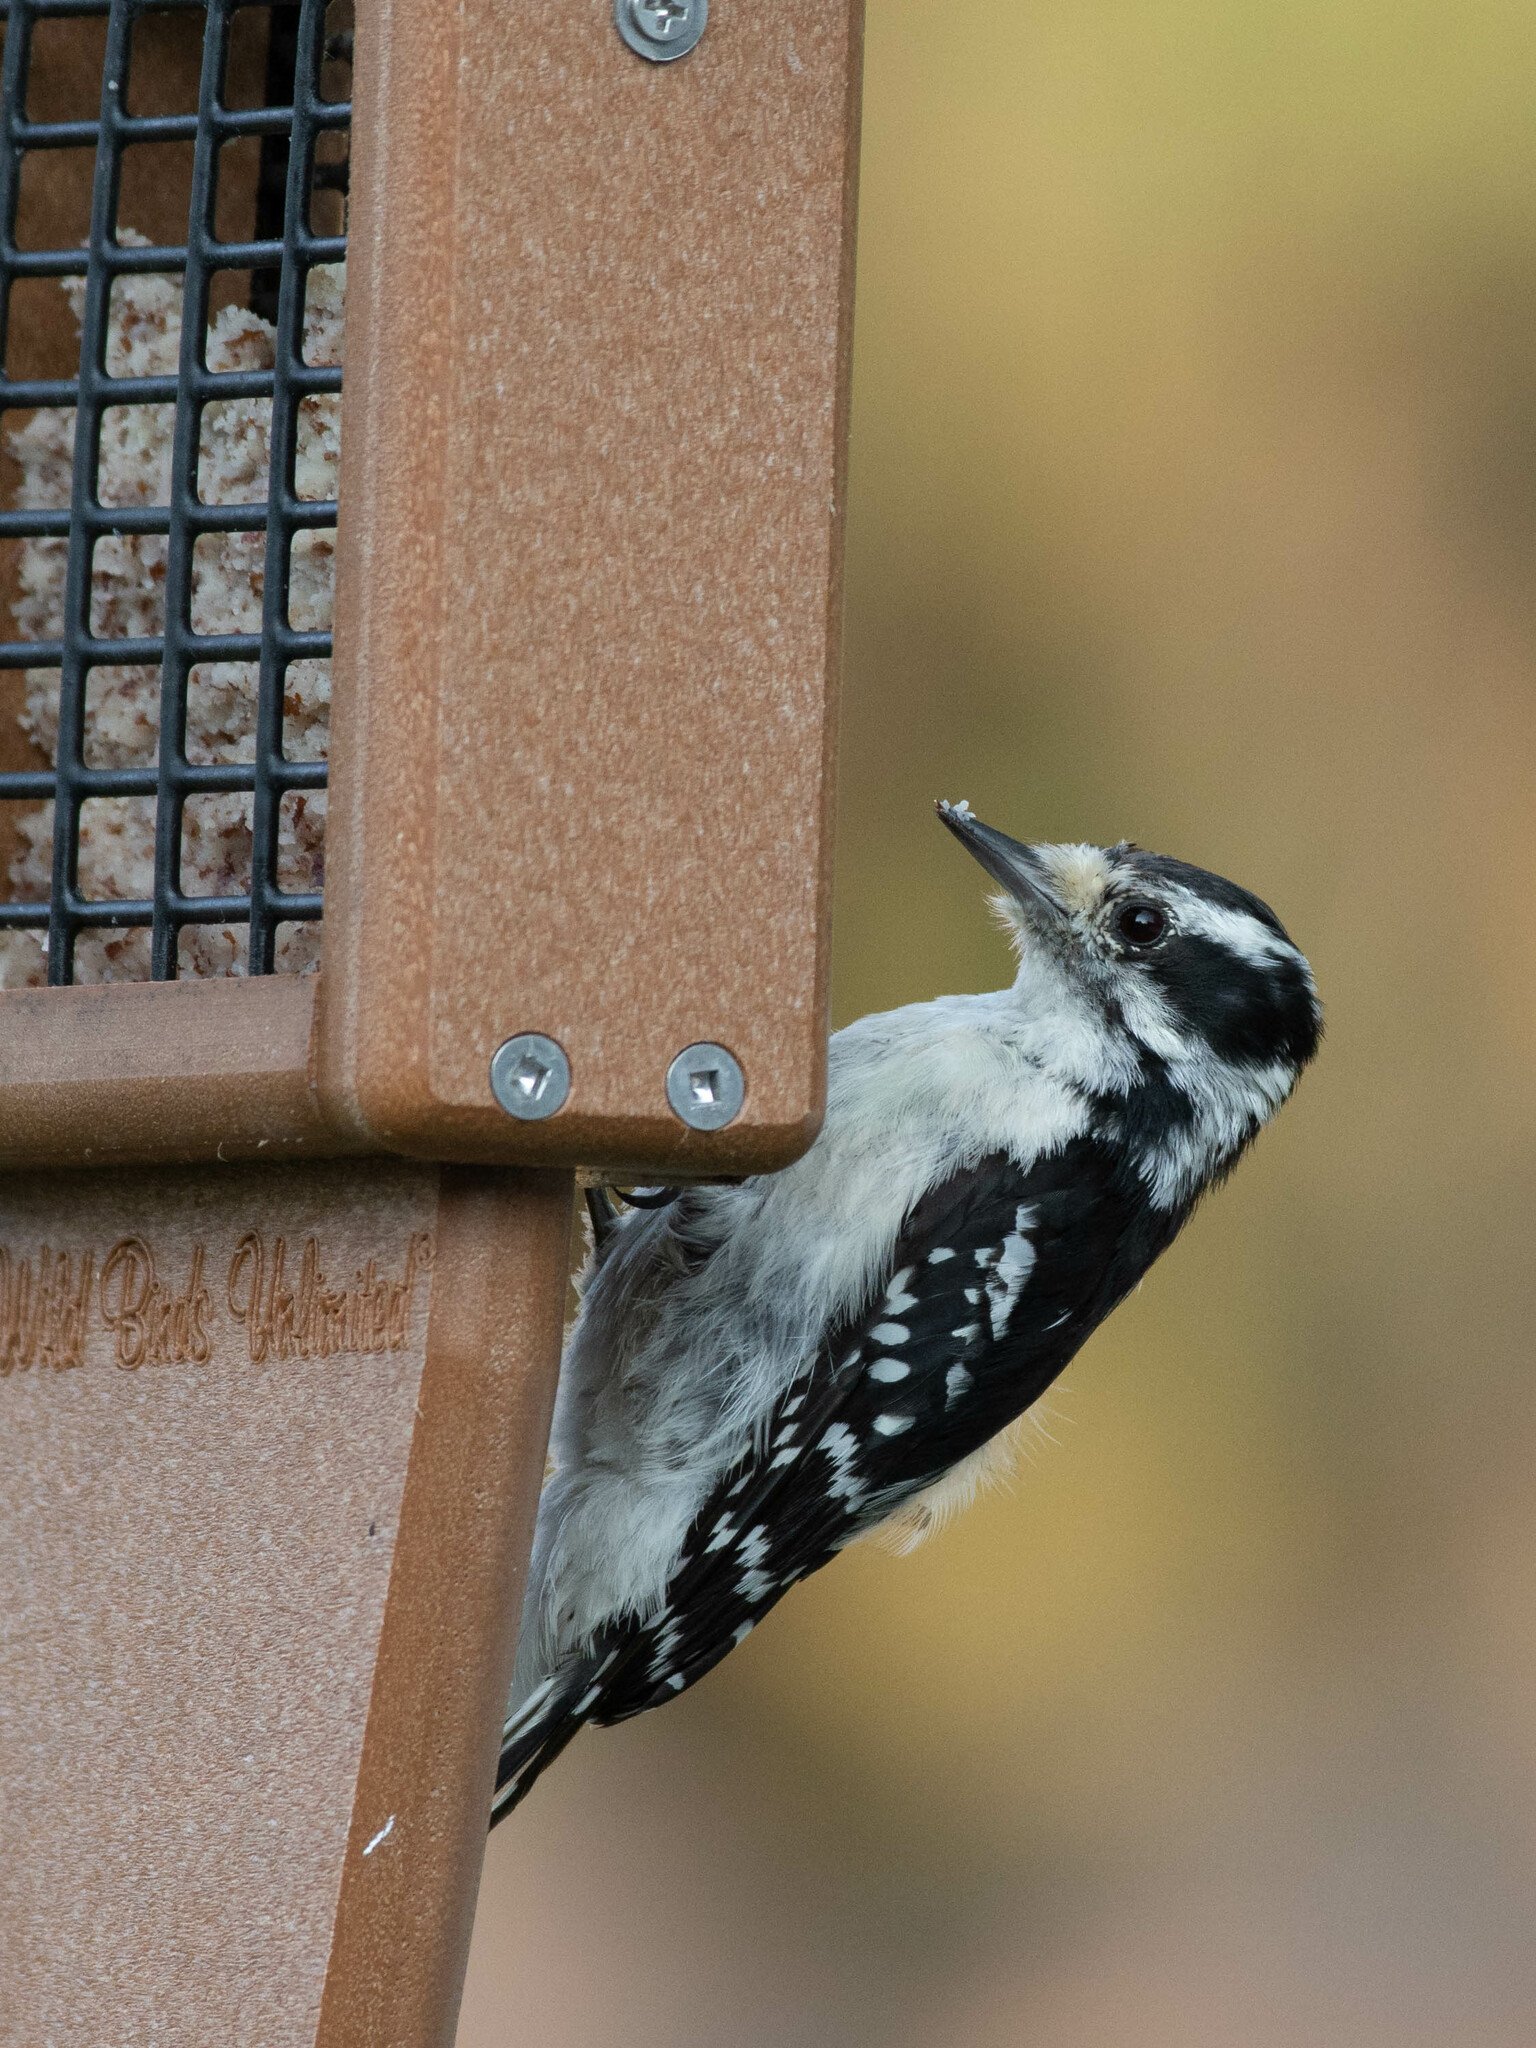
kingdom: Animalia
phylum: Chordata
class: Aves
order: Piciformes
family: Picidae
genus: Dryobates
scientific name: Dryobates pubescens
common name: Downy woodpecker
